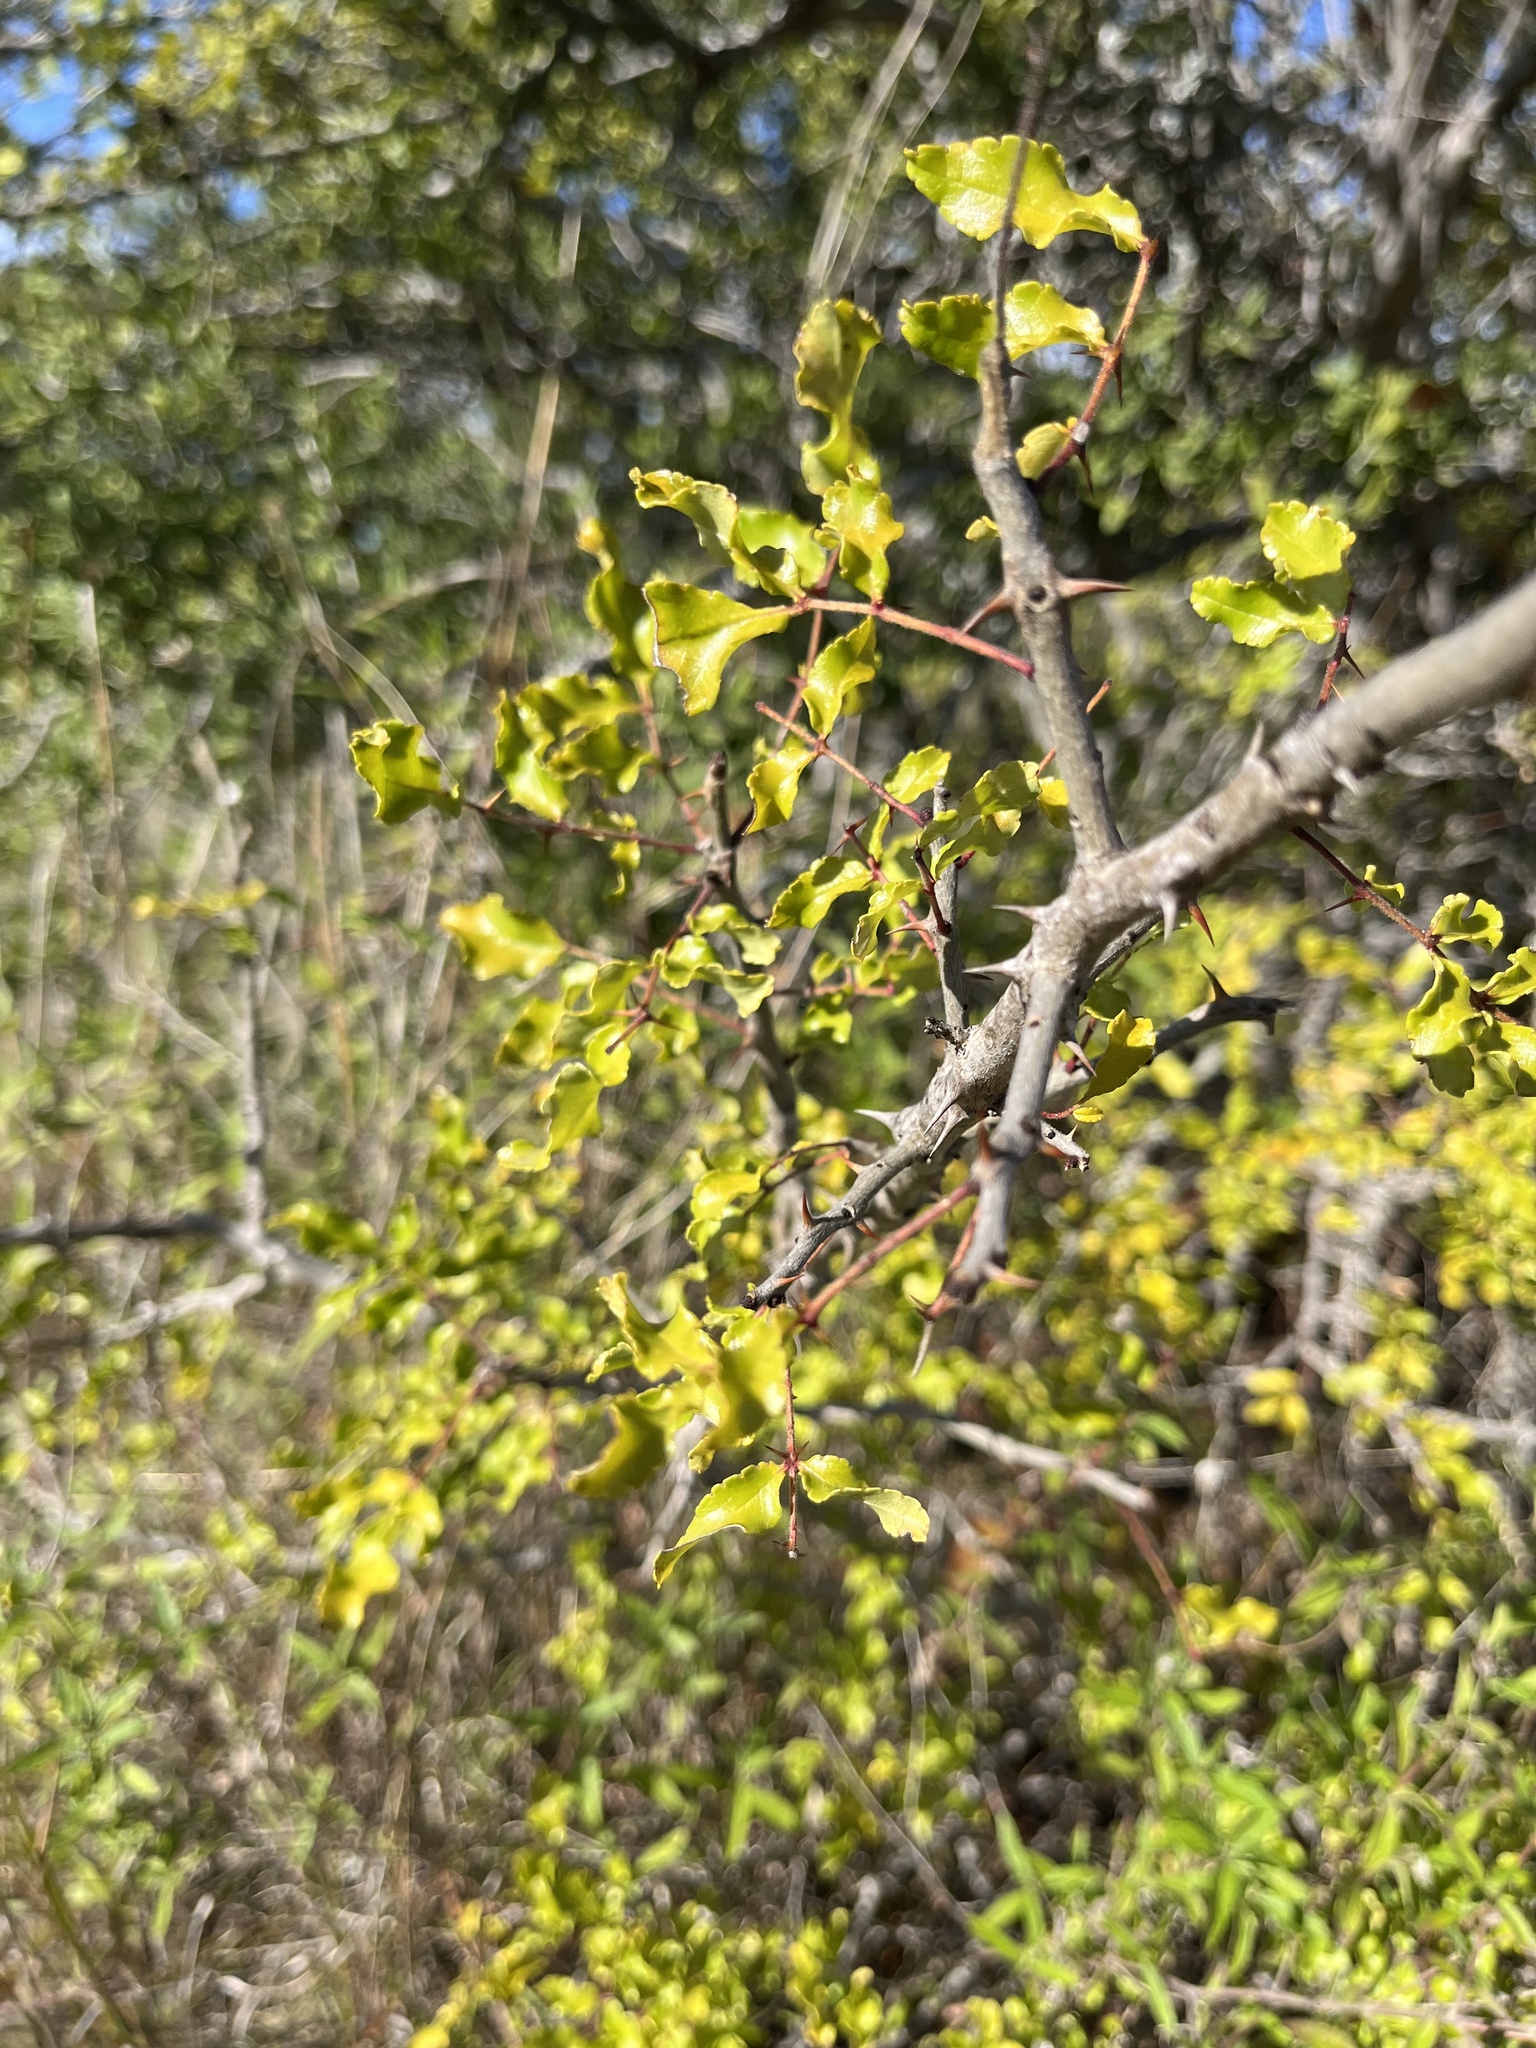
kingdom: Plantae
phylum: Tracheophyta
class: Magnoliopsida
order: Sapindales
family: Rutaceae
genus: Zanthoxylum
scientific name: Zanthoxylum clava-herculis
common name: Hercules'-club
